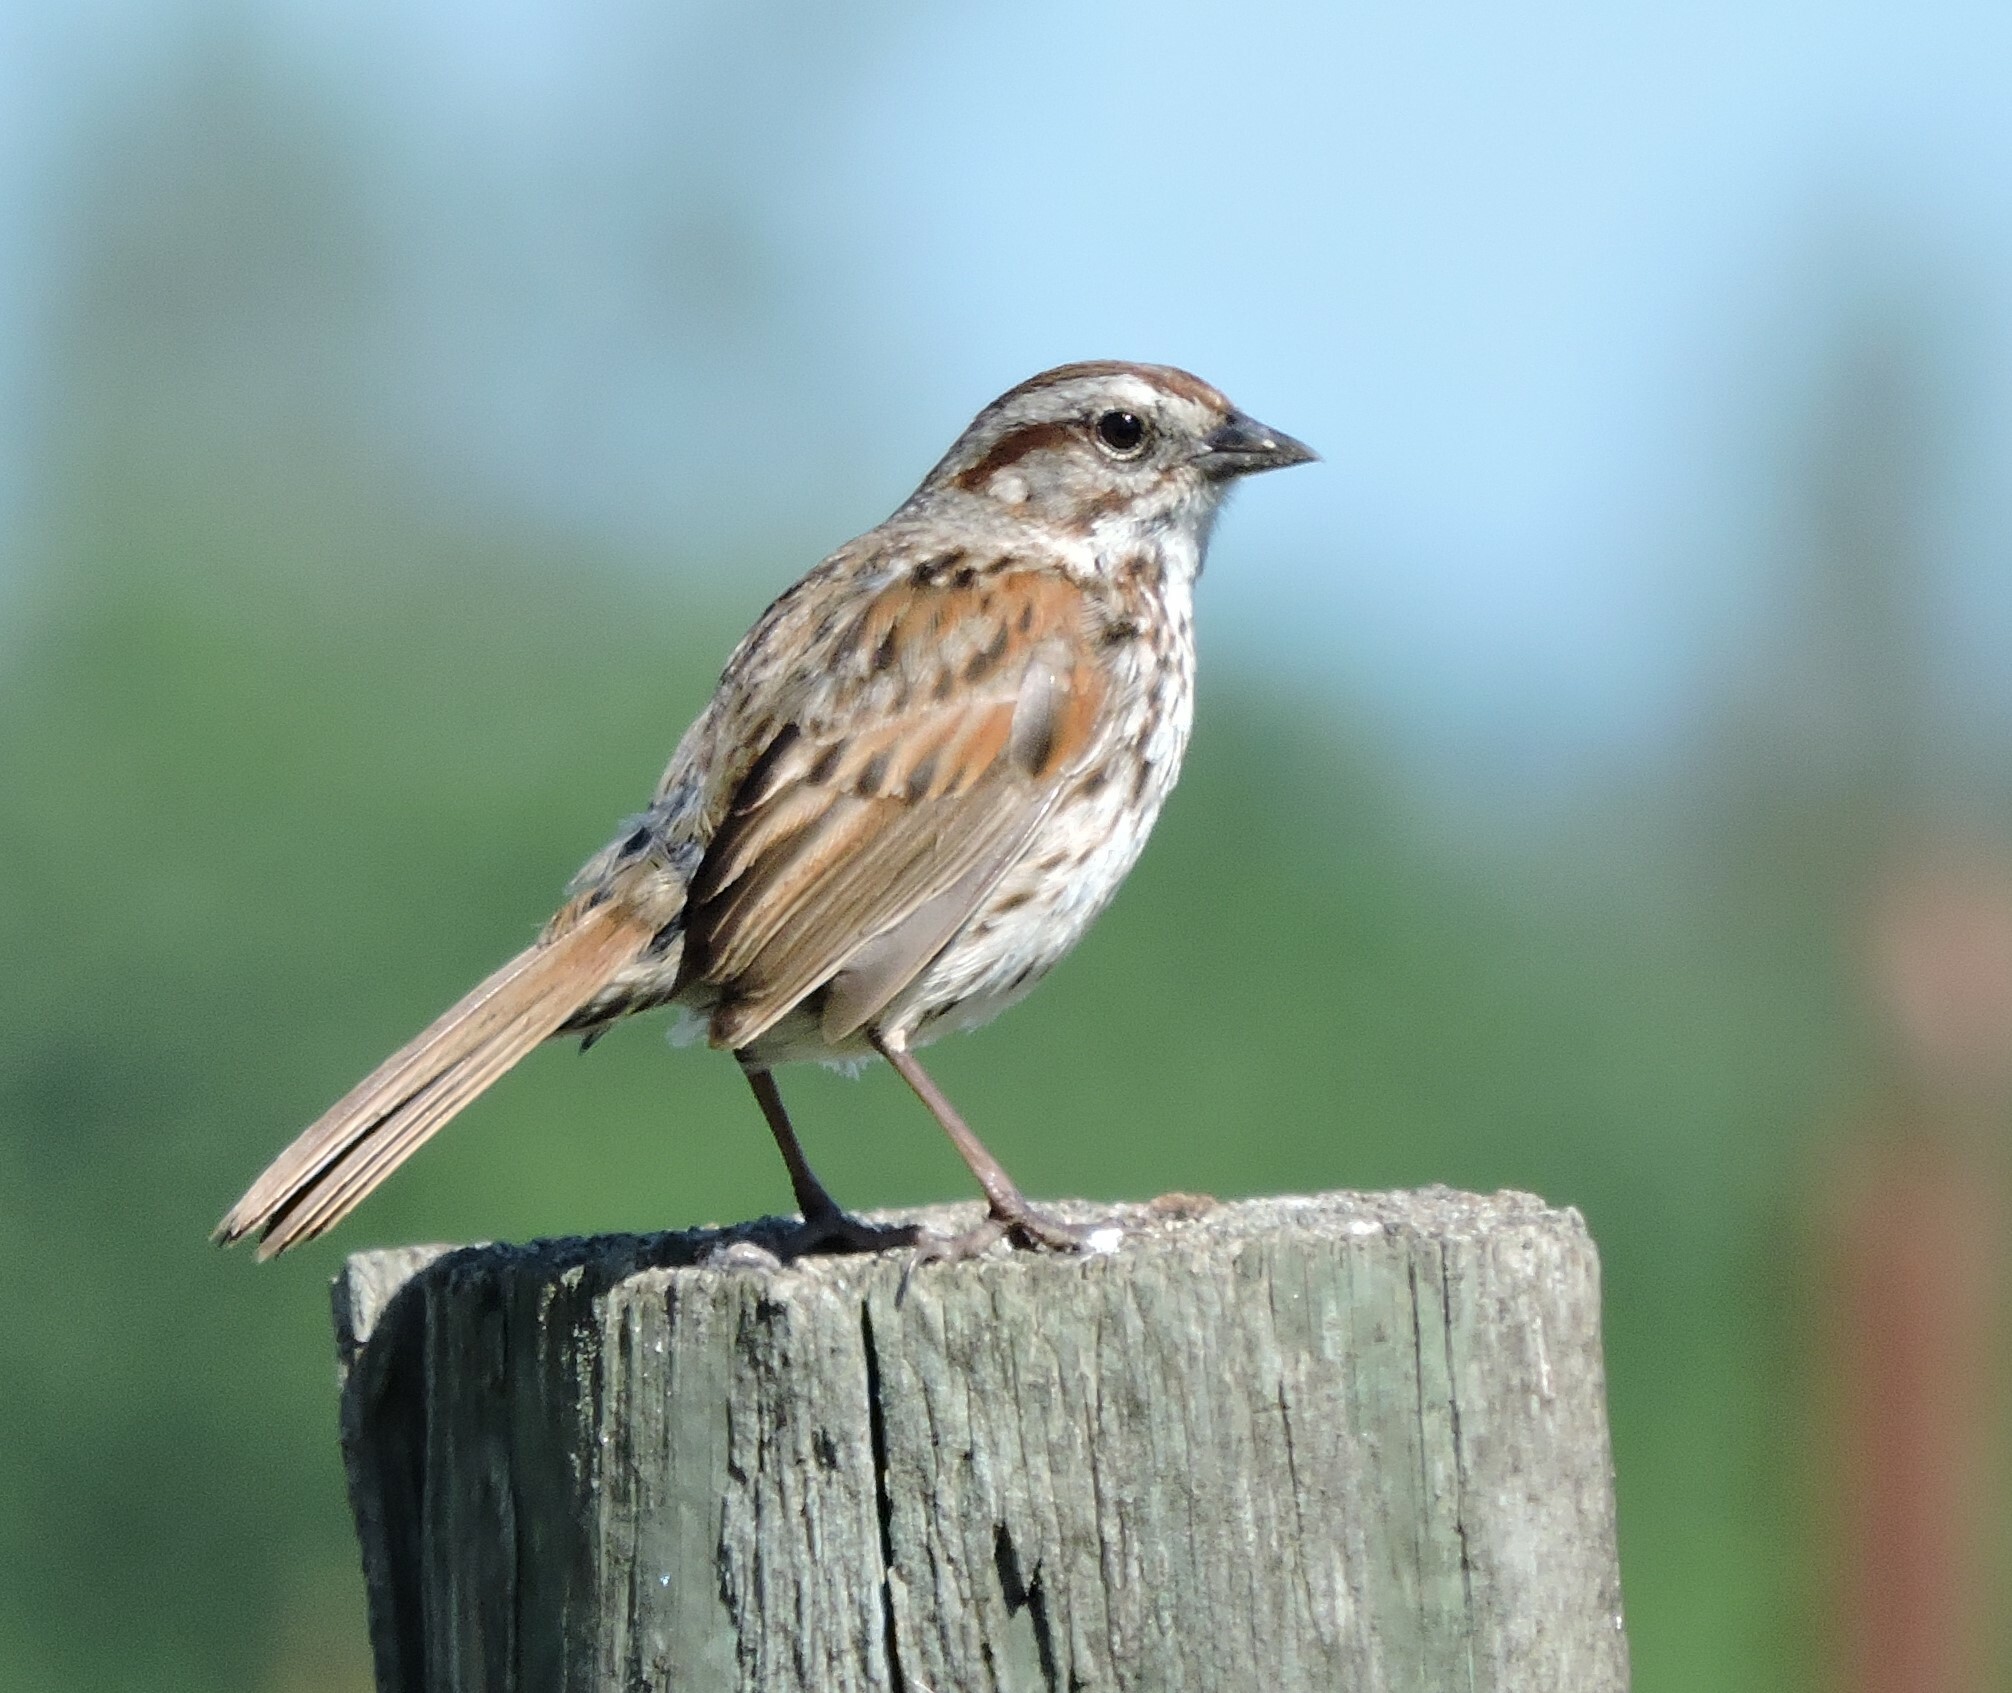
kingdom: Animalia
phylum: Chordata
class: Aves
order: Passeriformes
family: Passerellidae
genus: Melospiza
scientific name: Melospiza melodia
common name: Song sparrow
